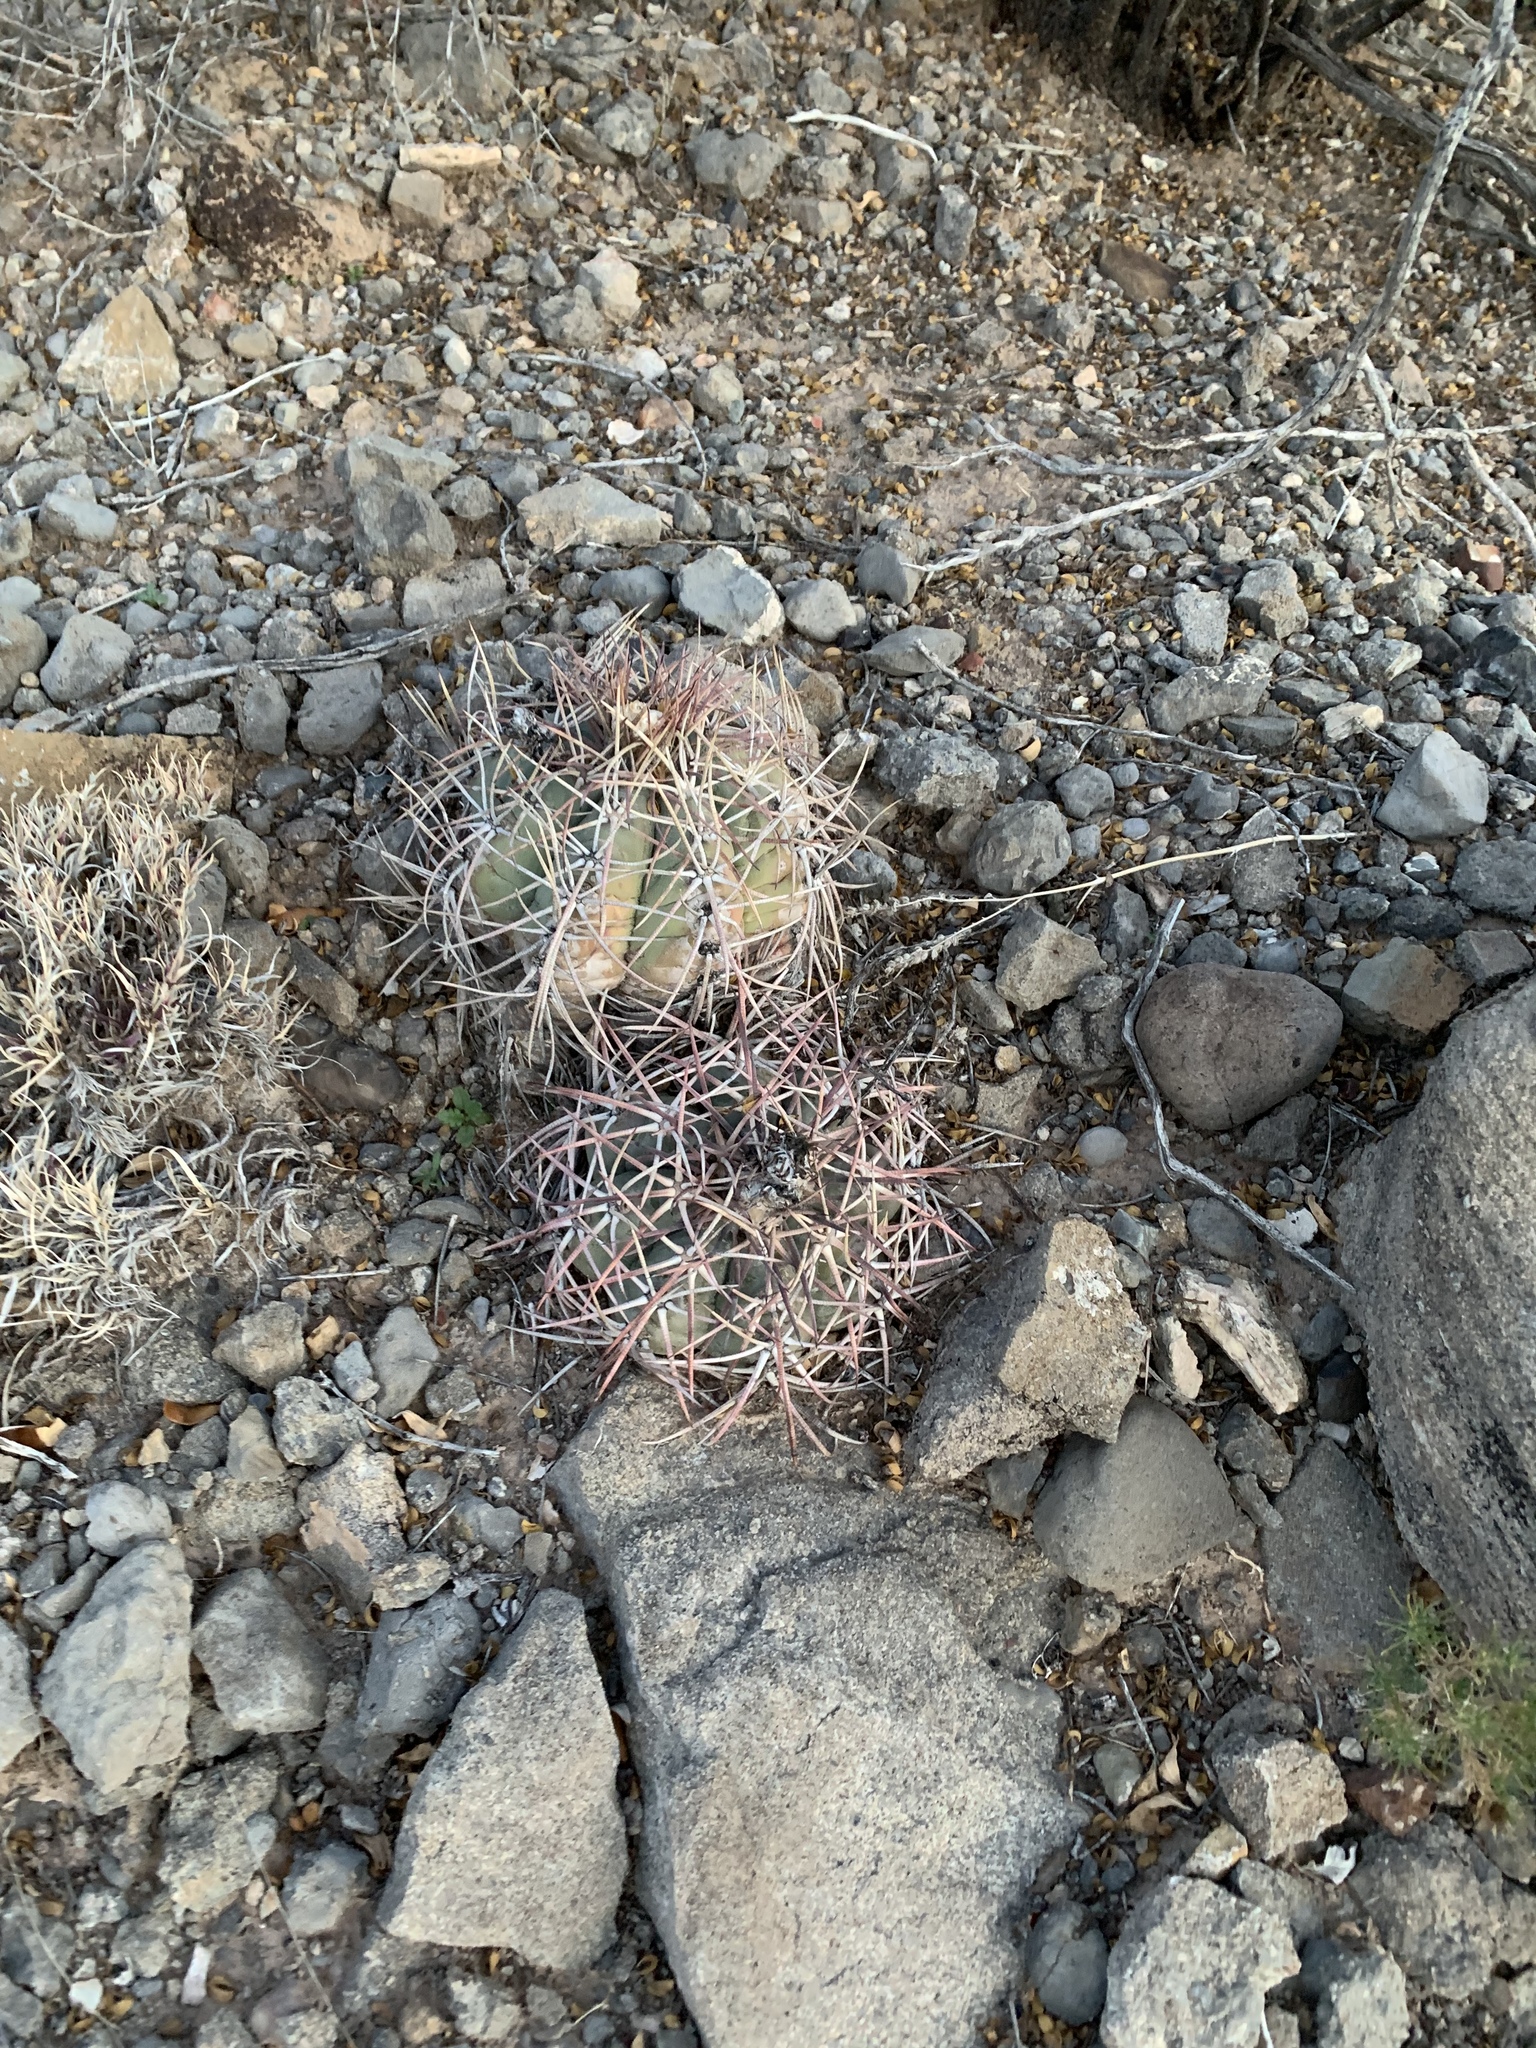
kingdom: Plantae
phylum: Tracheophyta
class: Magnoliopsida
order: Caryophyllales
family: Cactaceae
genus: Echinocactus
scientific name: Echinocactus horizonthalonius
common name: Devilshead
